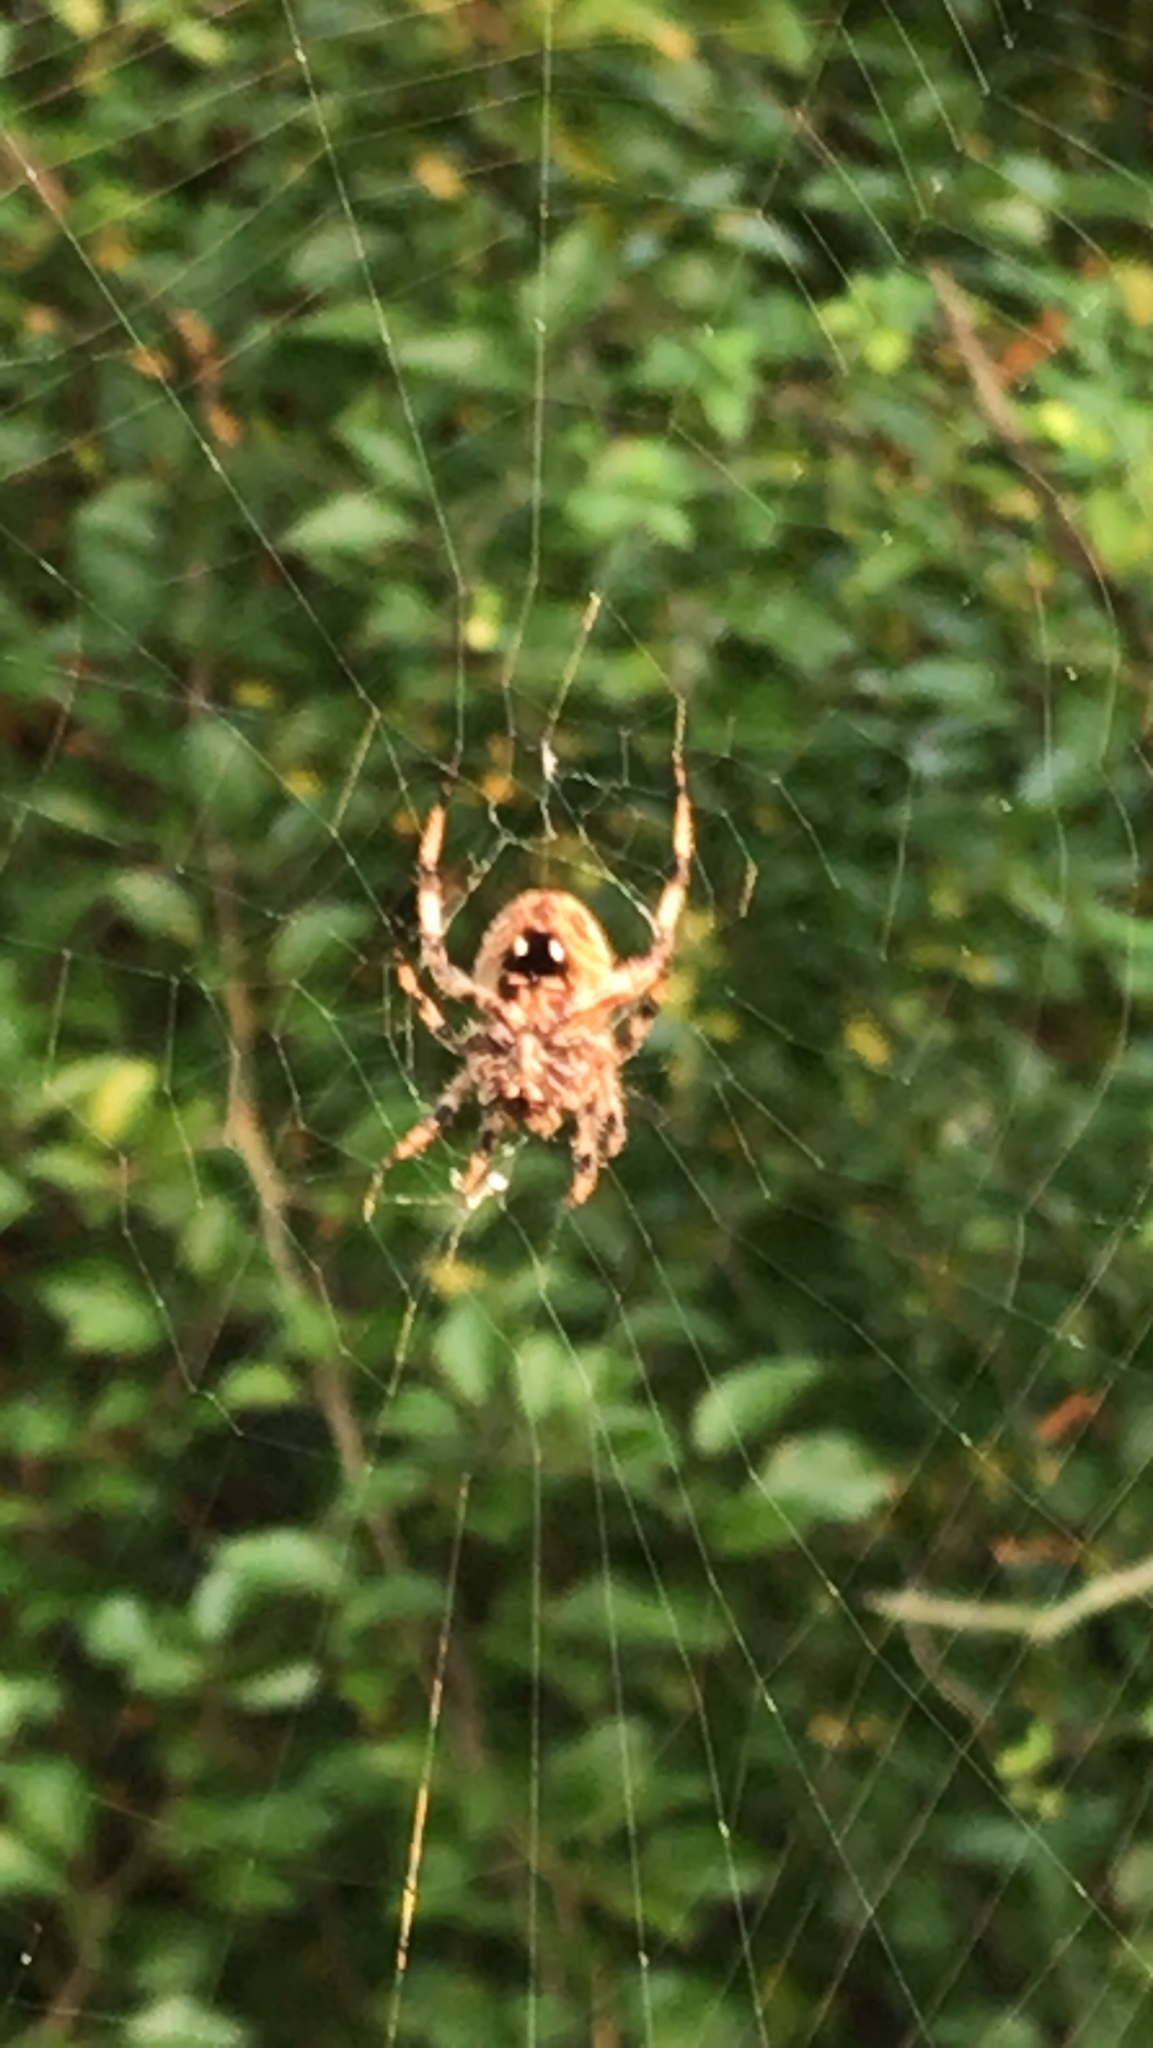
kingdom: Animalia
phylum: Arthropoda
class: Arachnida
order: Araneae
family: Araneidae
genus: Neoscona
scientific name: Neoscona crucifera
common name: Spotted orbweaver
